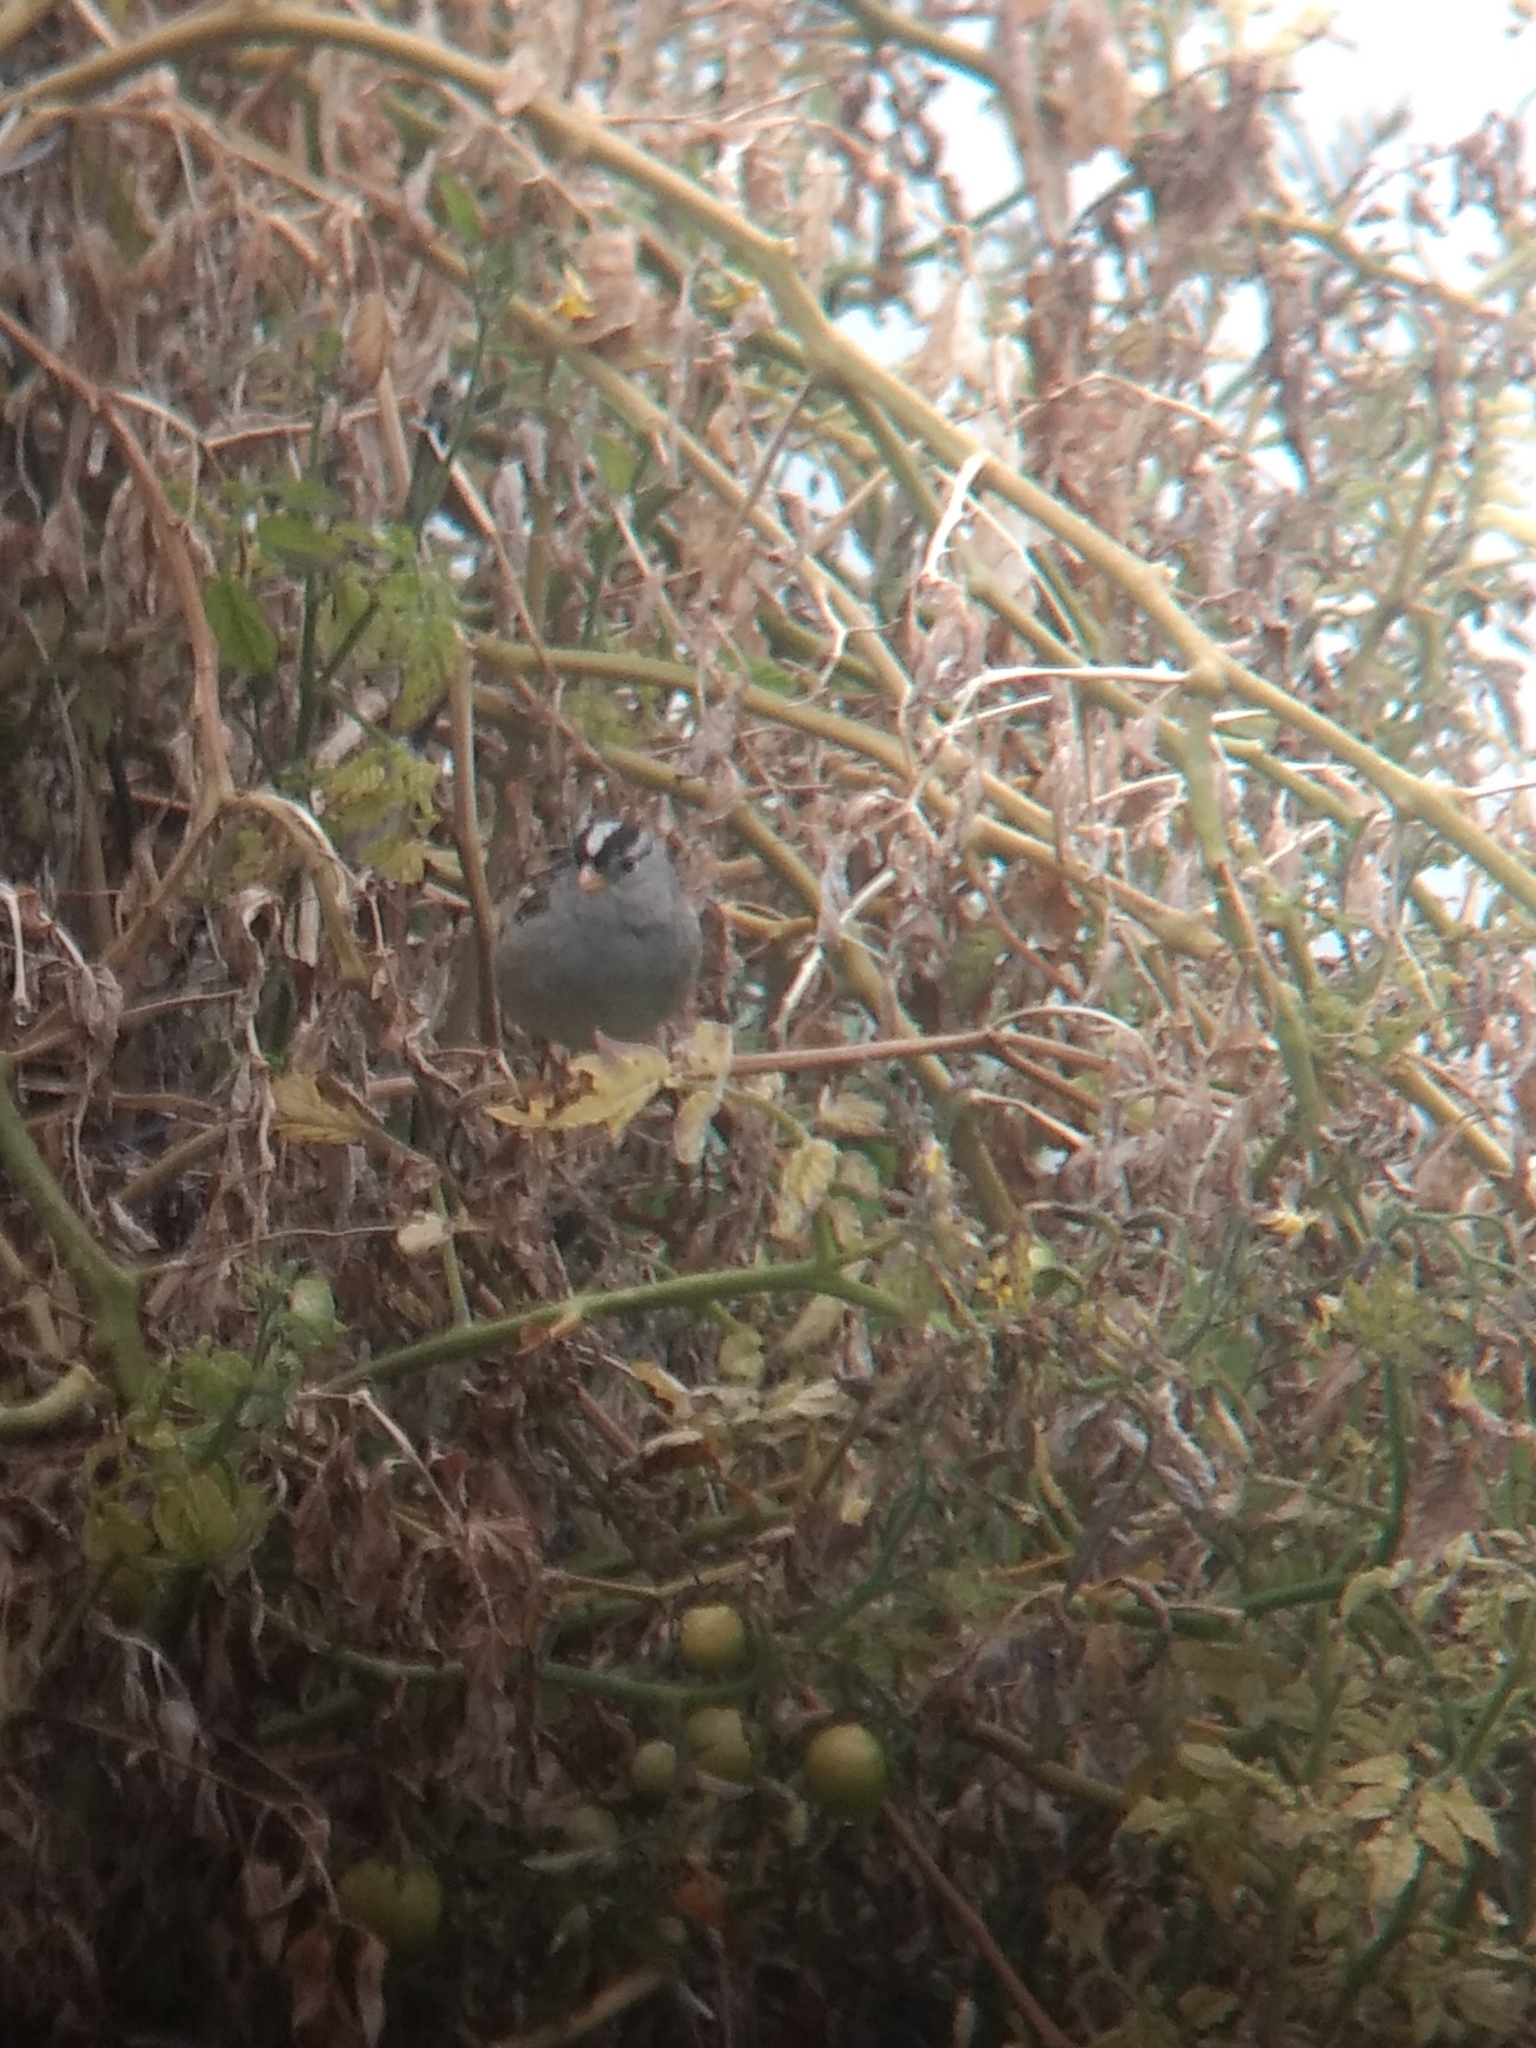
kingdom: Animalia
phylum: Chordata
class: Aves
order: Passeriformes
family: Passerellidae
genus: Zonotrichia
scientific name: Zonotrichia leucophrys
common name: White-crowned sparrow
